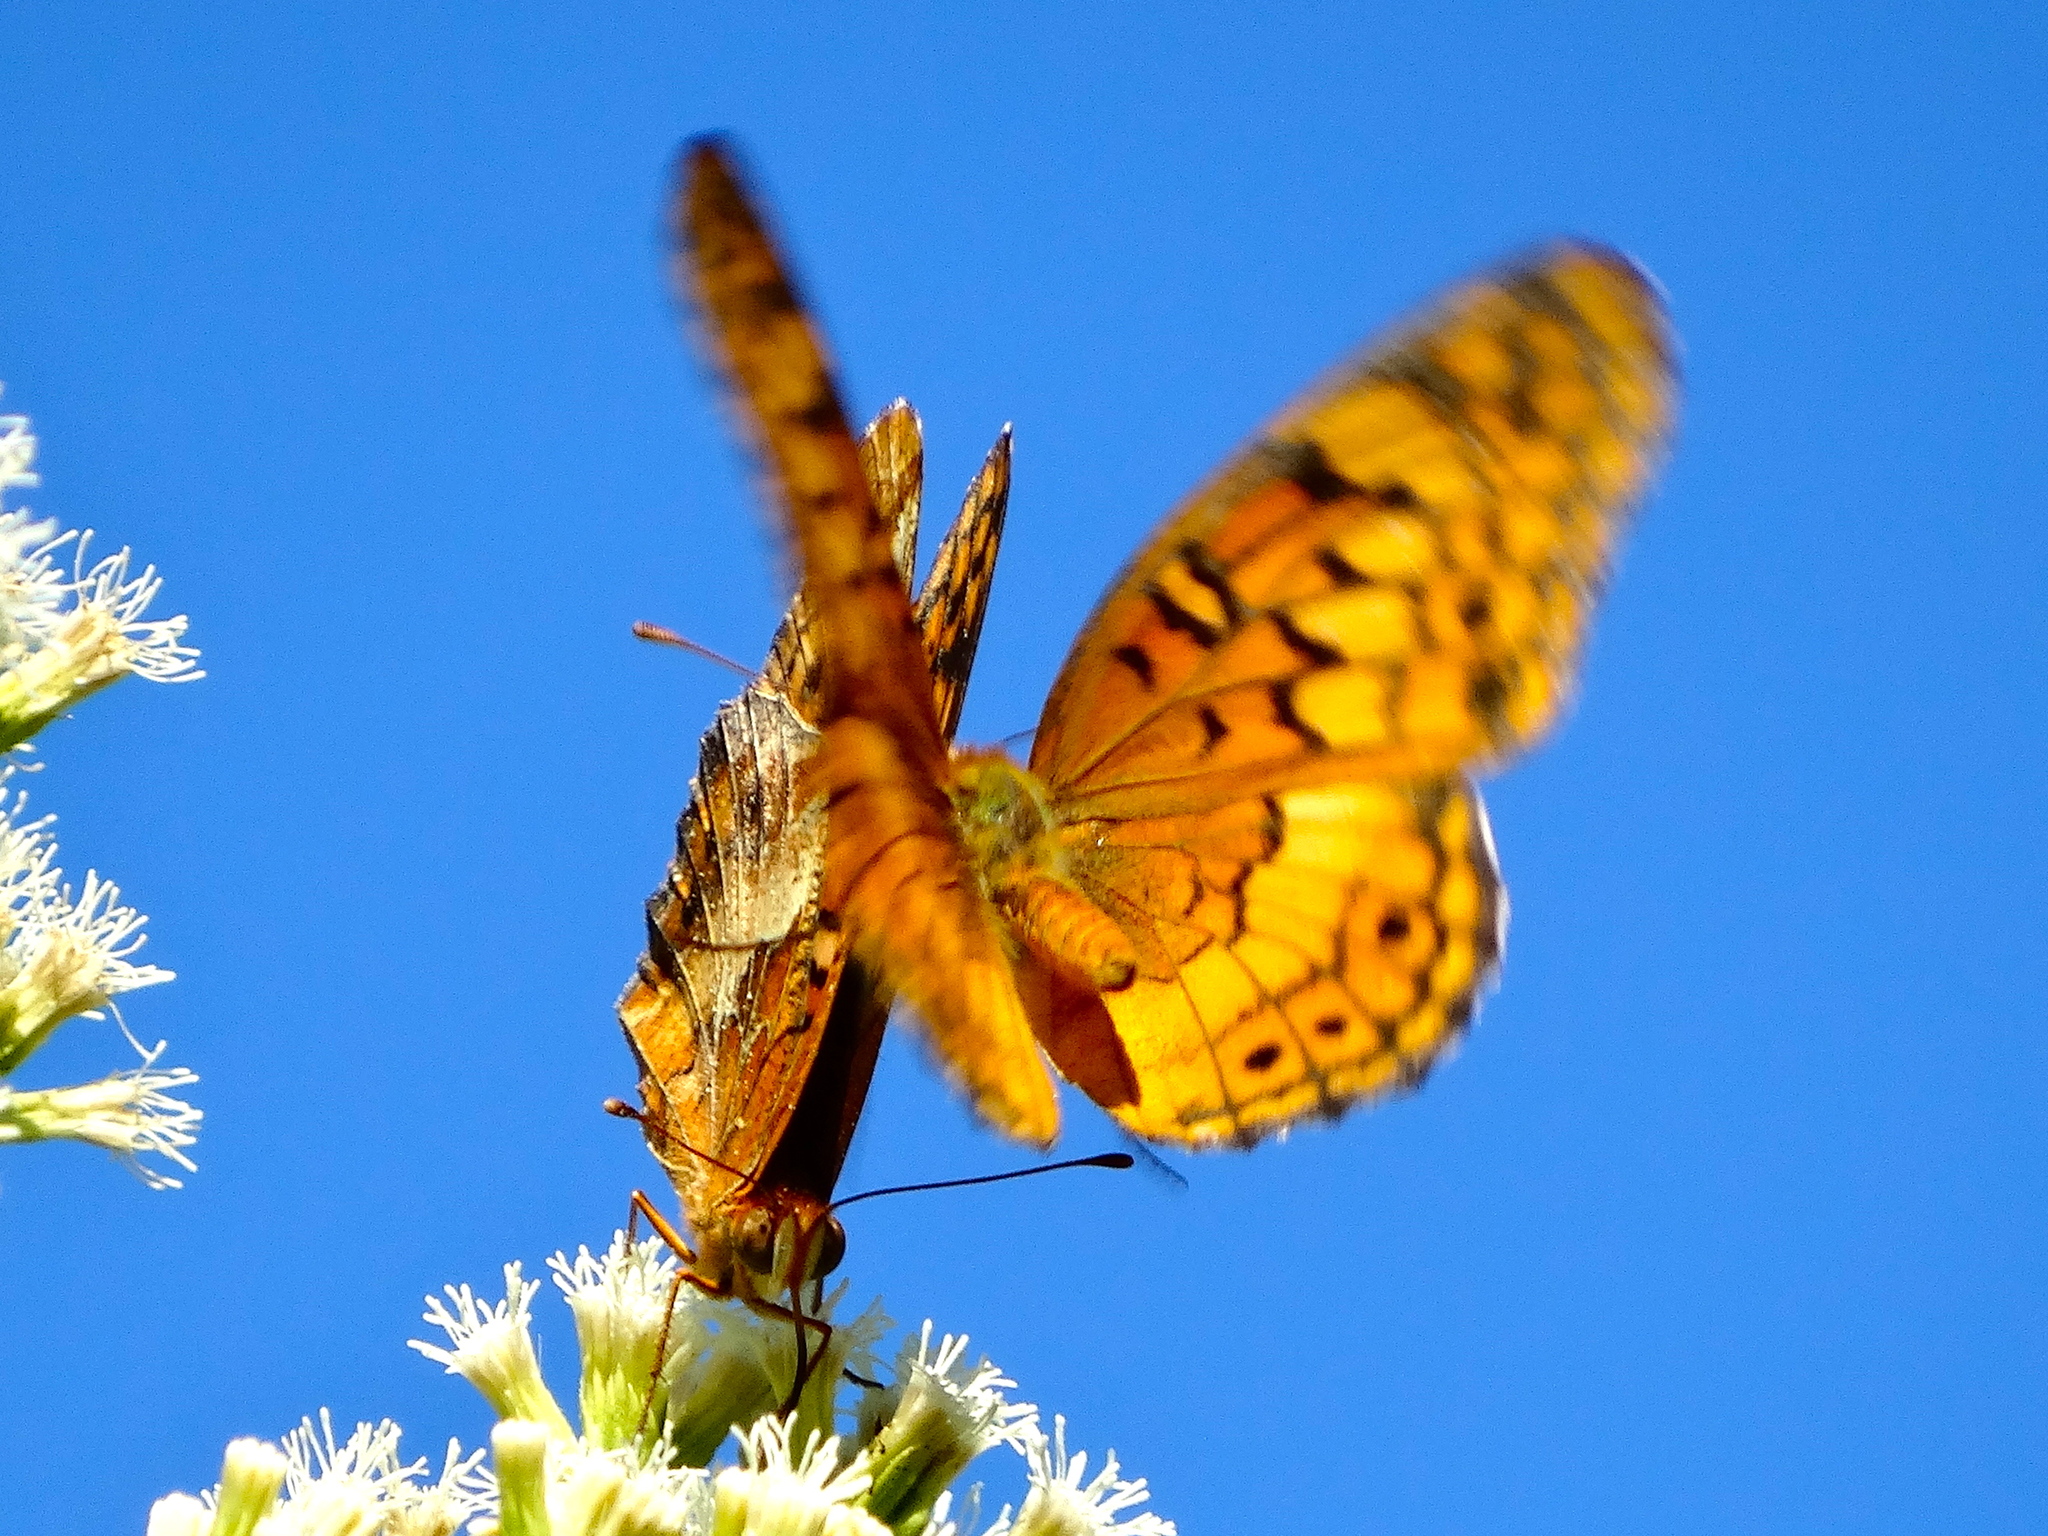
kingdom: Animalia
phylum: Arthropoda
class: Insecta
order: Lepidoptera
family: Nymphalidae
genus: Euptoieta
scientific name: Euptoieta claudia
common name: Variegated fritillary
